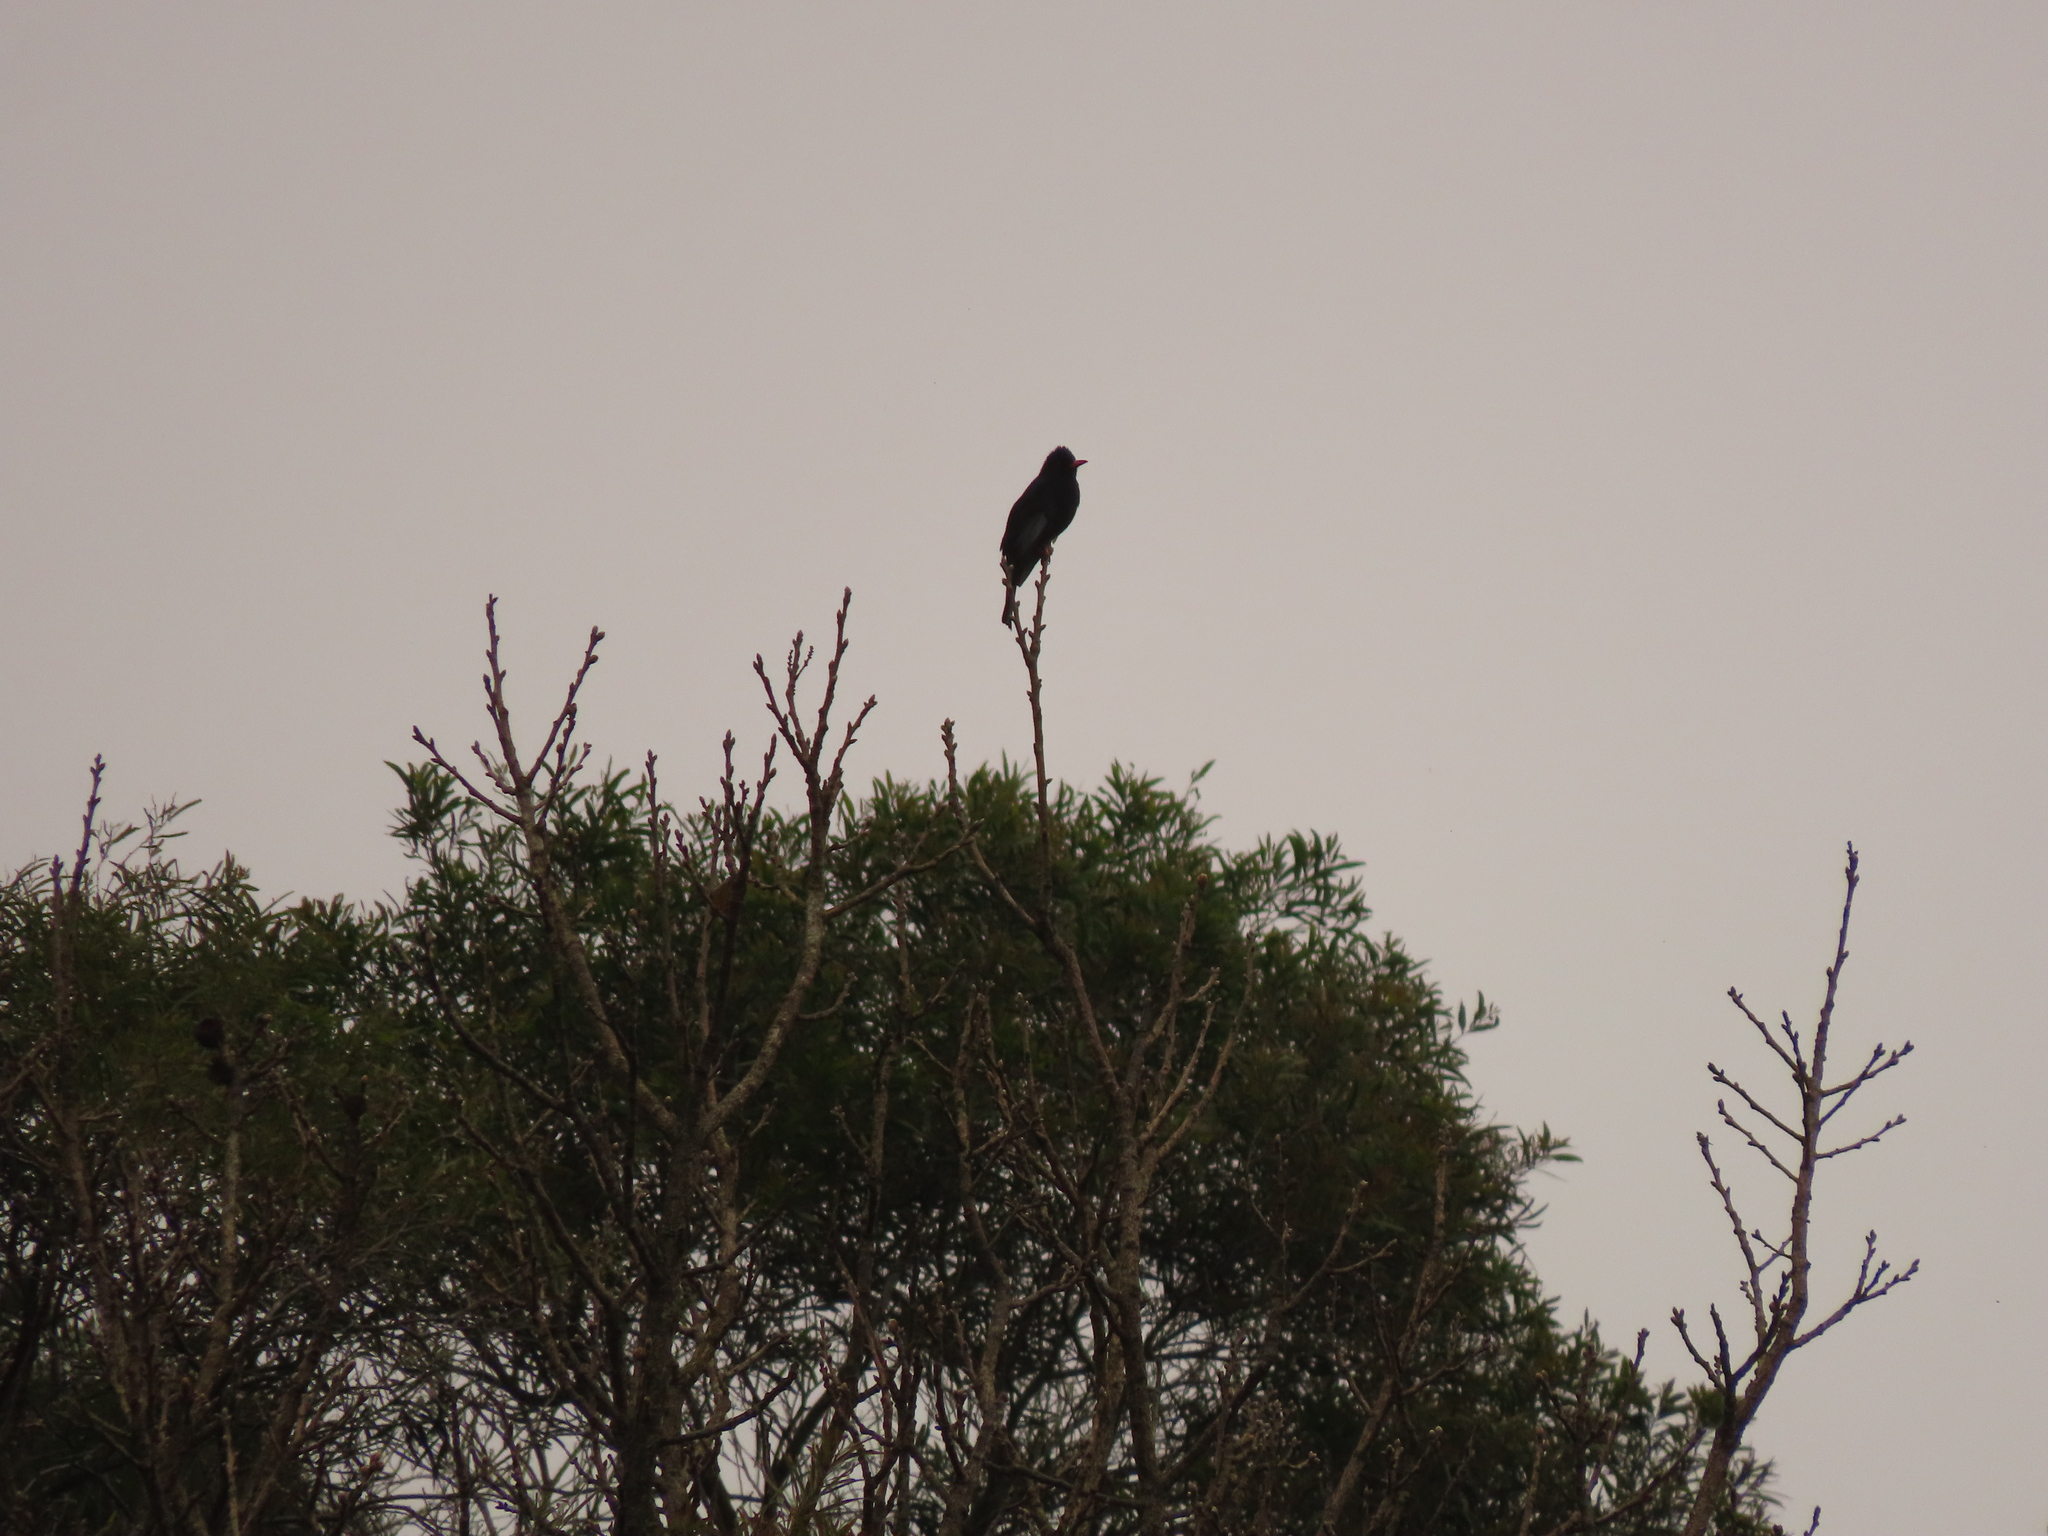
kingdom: Animalia
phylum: Chordata
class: Aves
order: Passeriformes
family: Pycnonotidae
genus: Hypsipetes
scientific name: Hypsipetes leucocephalus
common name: Black bulbul
